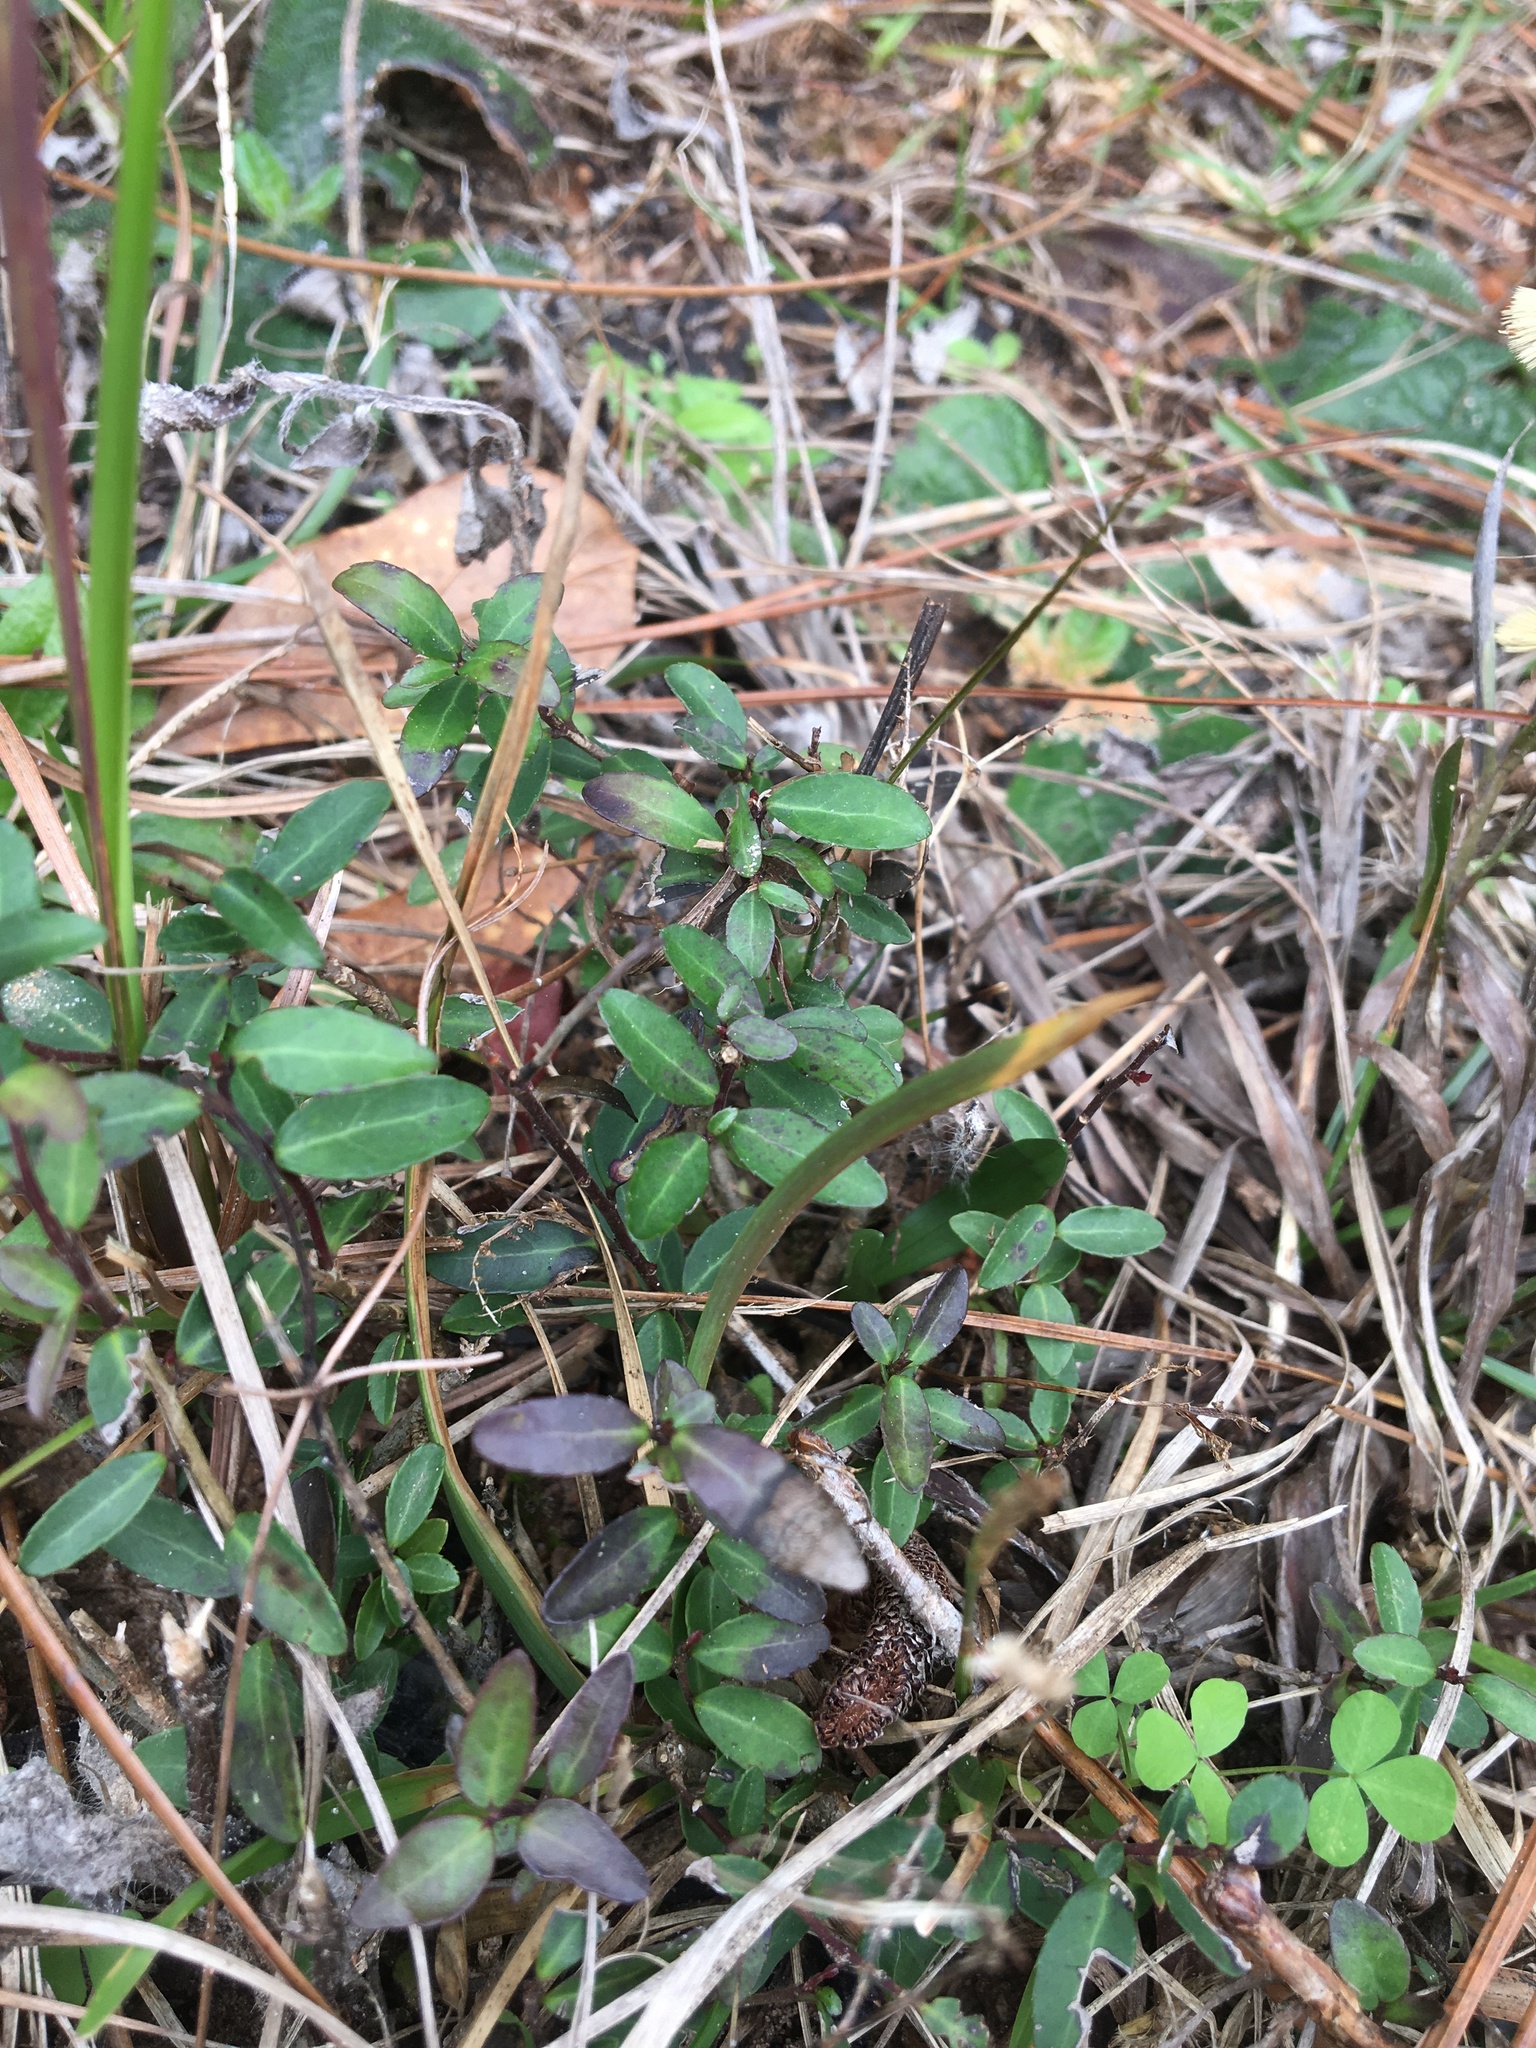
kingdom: Plantae
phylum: Tracheophyta
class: Magnoliopsida
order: Aquifoliales
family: Aquifoliaceae
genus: Ilex
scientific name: Ilex vomitoria
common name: Yaupon holly
